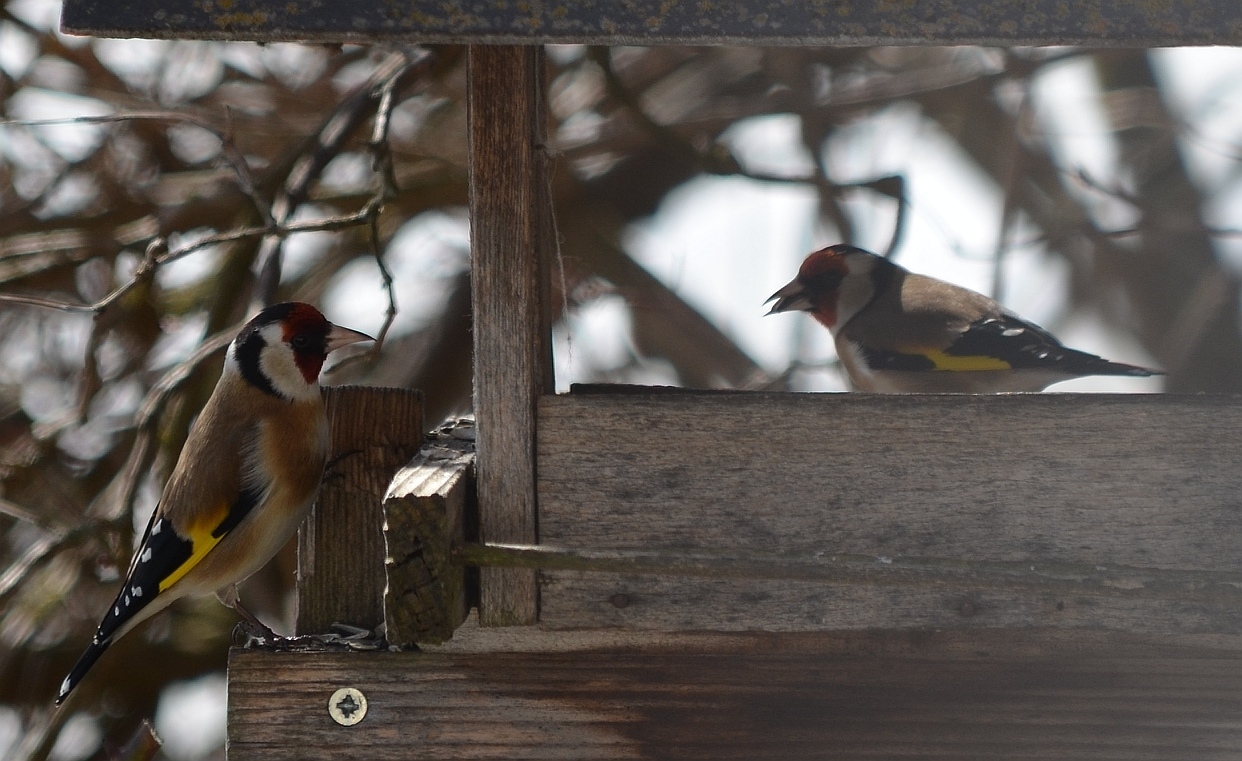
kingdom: Animalia
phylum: Chordata
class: Aves
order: Passeriformes
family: Fringillidae
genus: Carduelis
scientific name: Carduelis carduelis
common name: European goldfinch
